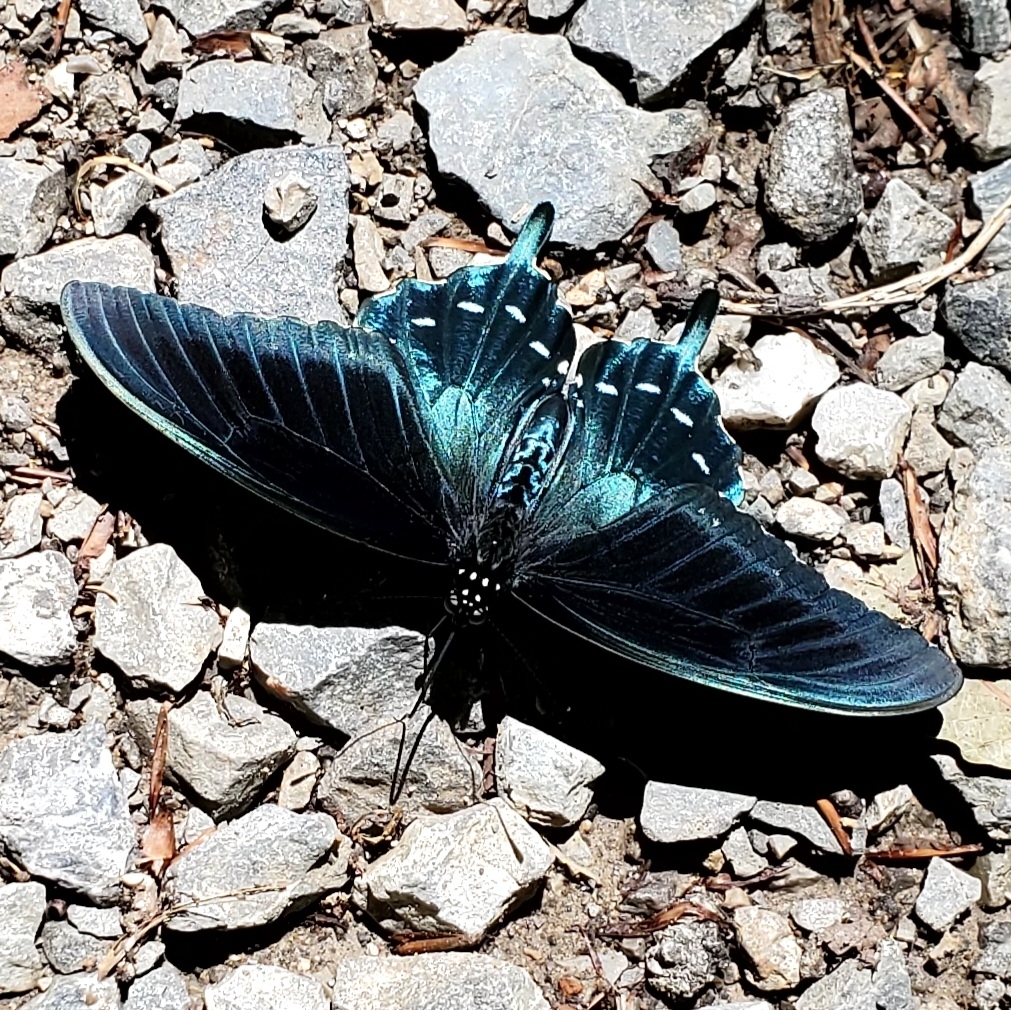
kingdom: Animalia
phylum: Arthropoda
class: Insecta
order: Lepidoptera
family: Papilionidae
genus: Battus
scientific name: Battus philenor
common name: Pipevine swallowtail
